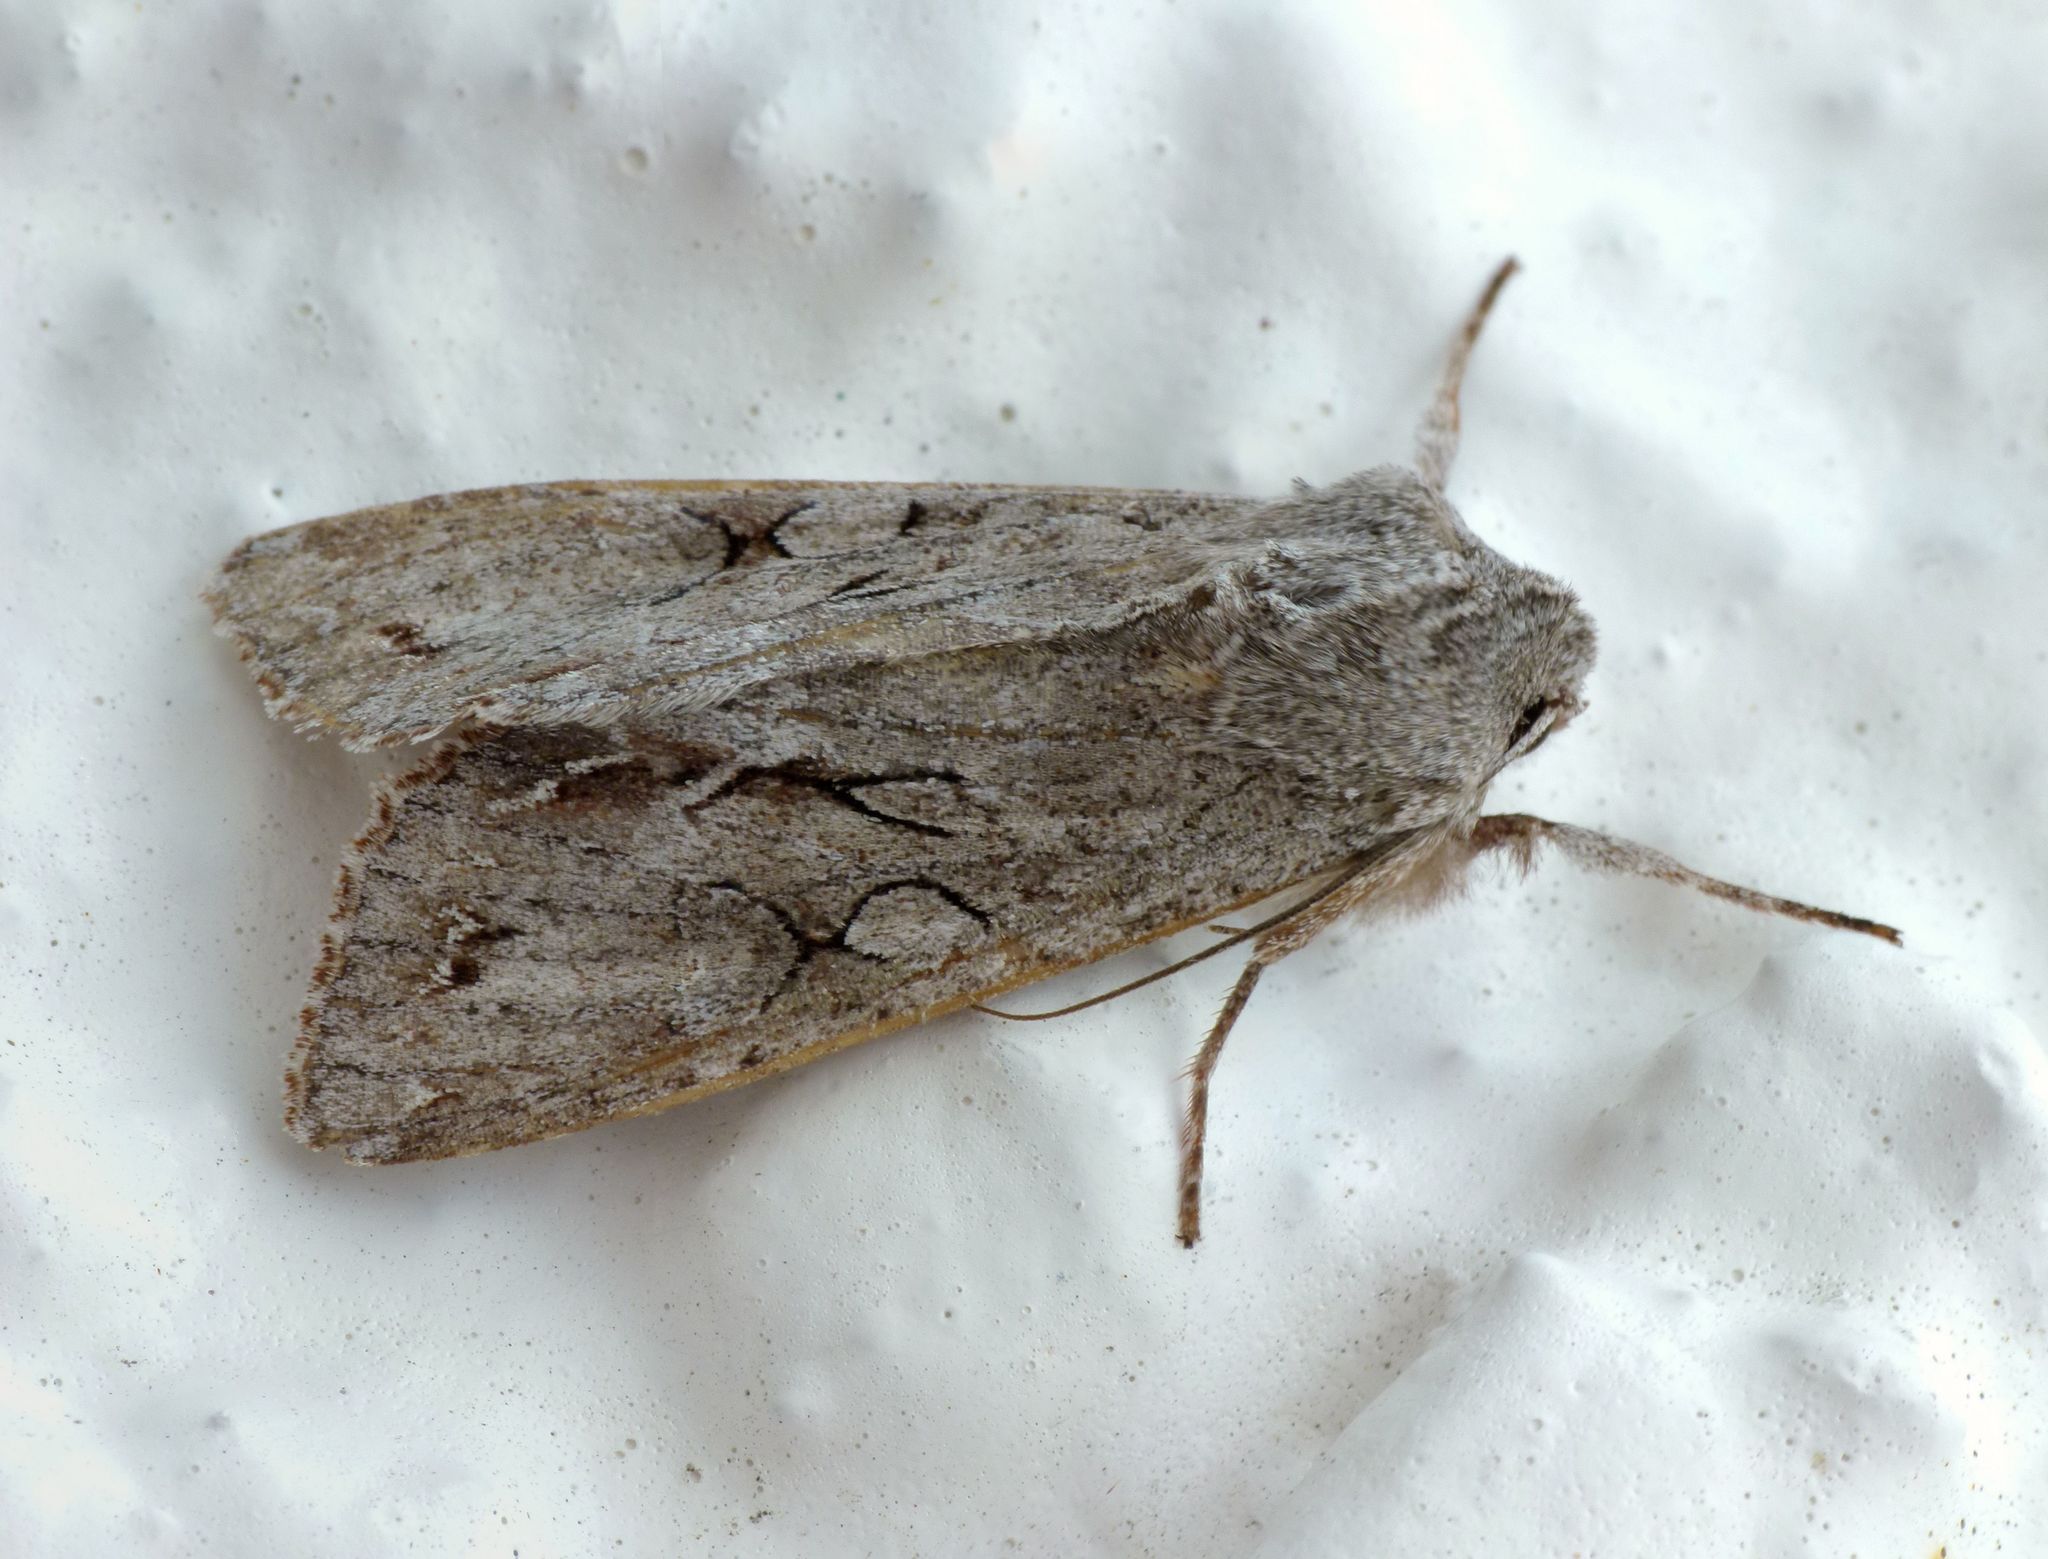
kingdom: Animalia
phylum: Arthropoda
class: Insecta
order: Lepidoptera
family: Noctuidae
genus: Ichneutica
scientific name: Ichneutica
